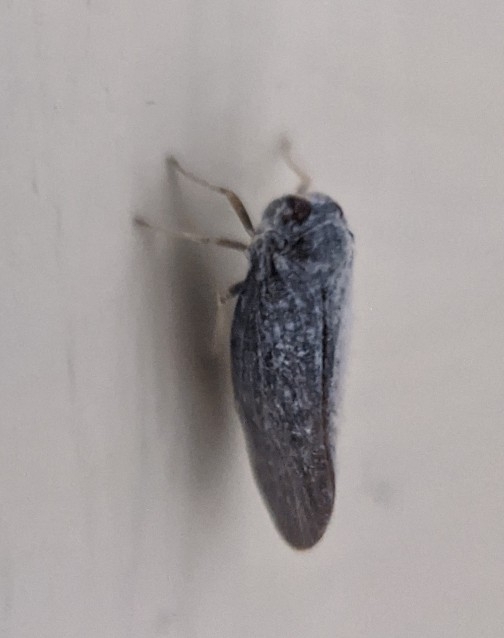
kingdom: Animalia
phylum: Arthropoda
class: Insecta
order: Hemiptera
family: Derbidae
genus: Cedusa
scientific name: Cedusa
